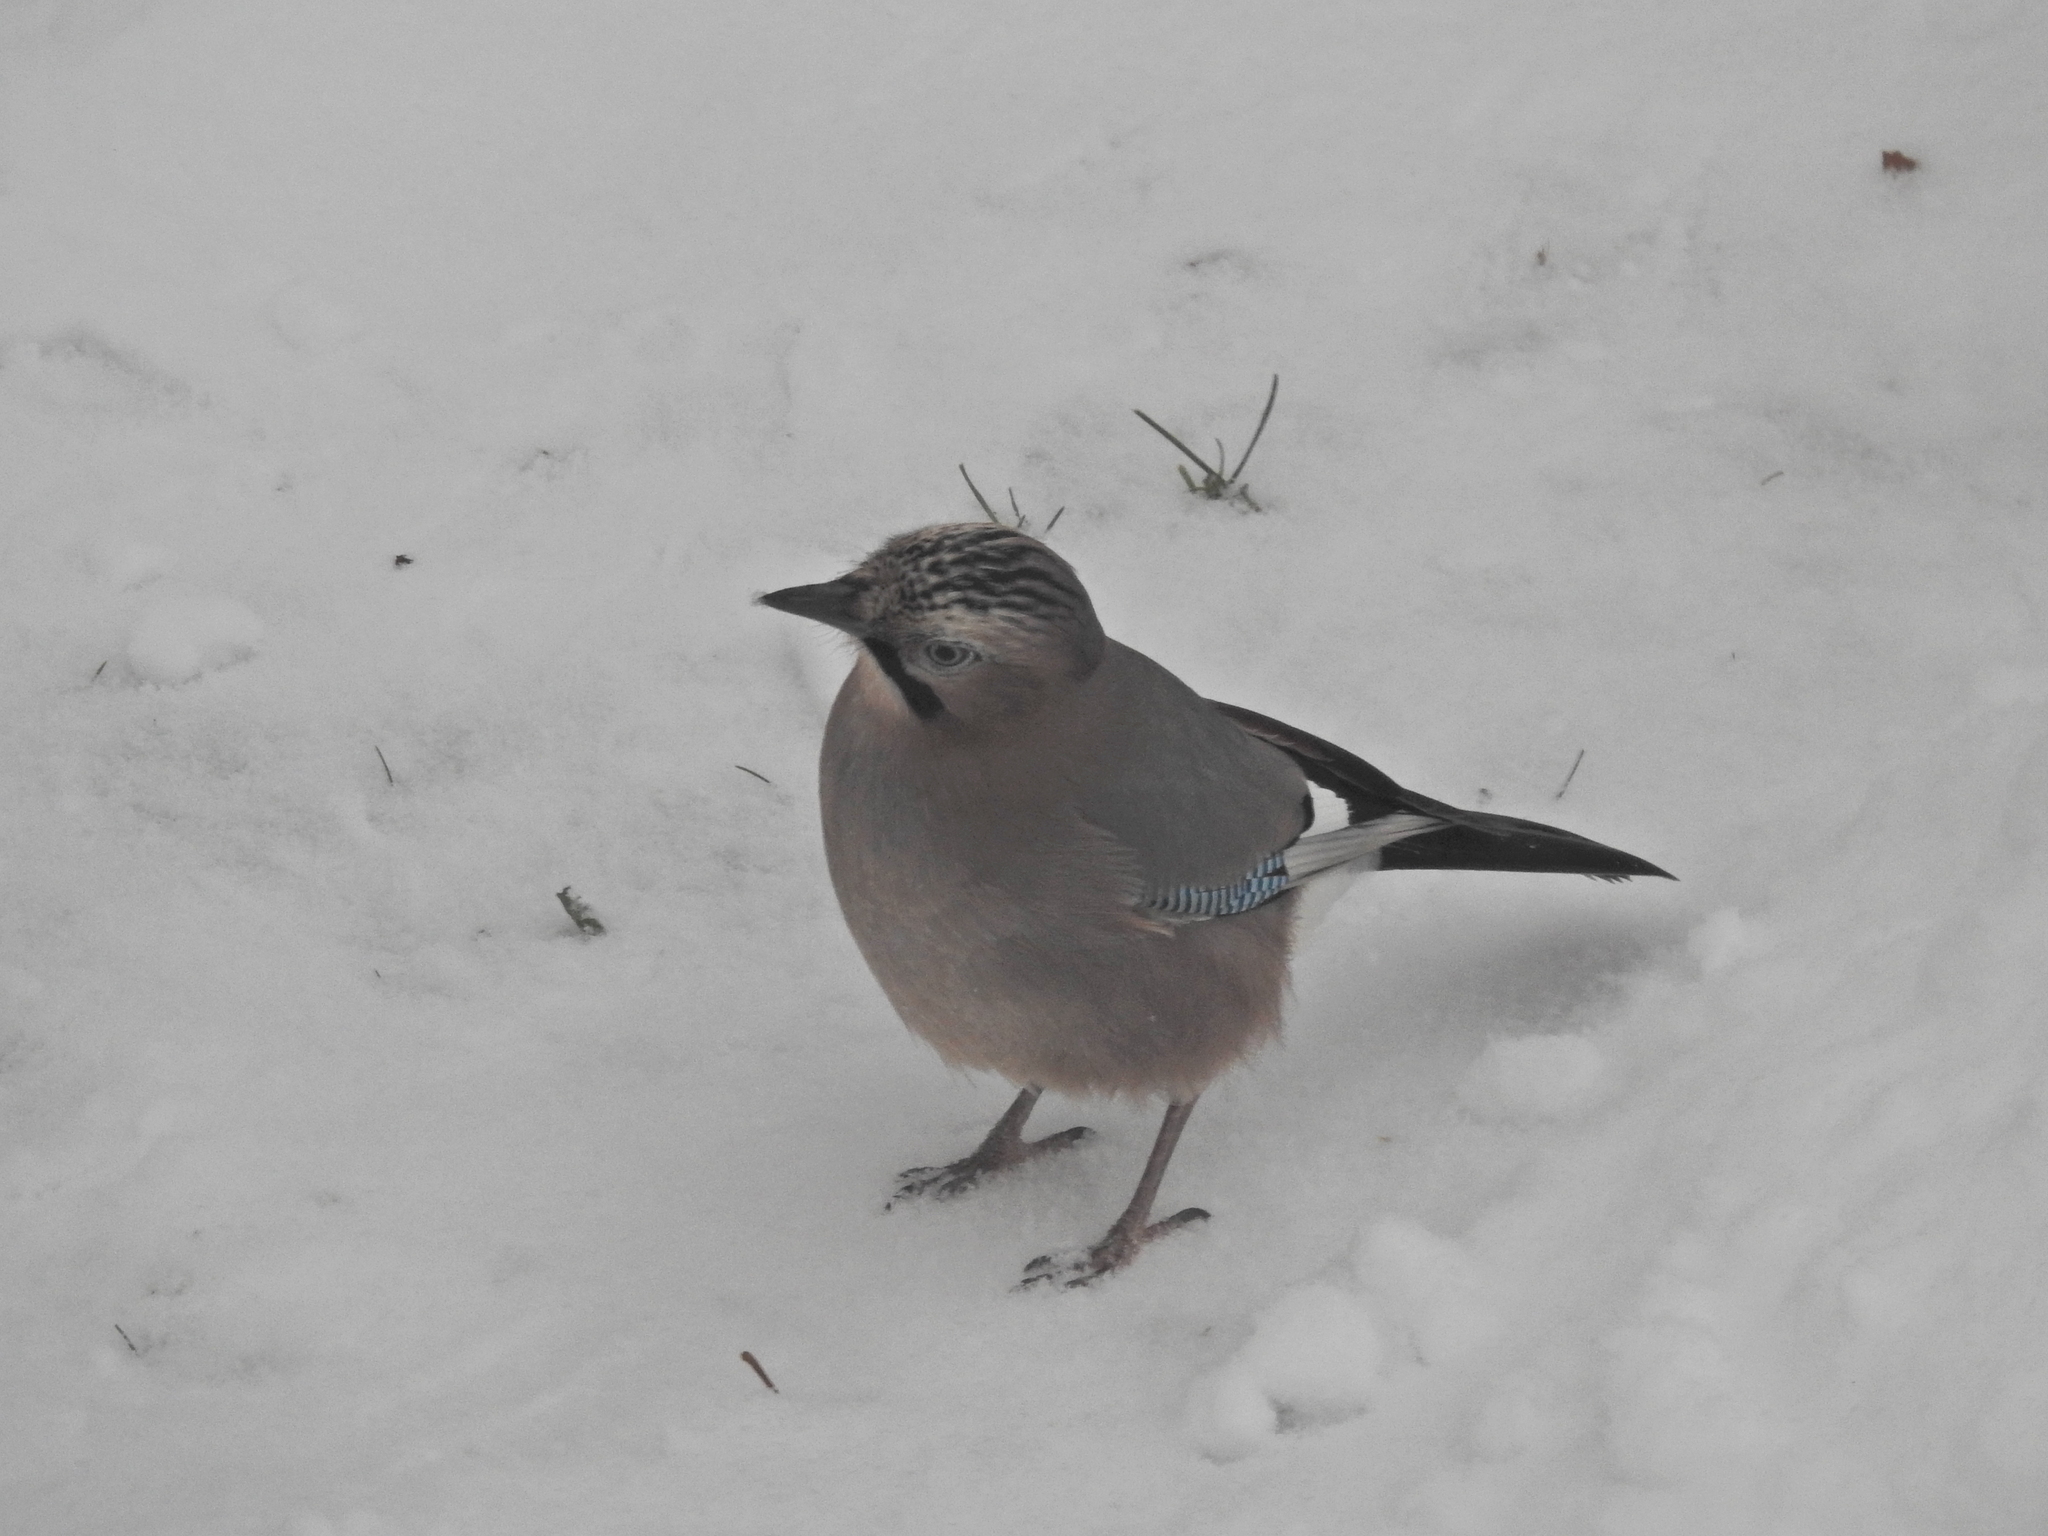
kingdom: Animalia
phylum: Chordata
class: Aves
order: Passeriformes
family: Corvidae
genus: Garrulus
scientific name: Garrulus glandarius
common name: Eurasian jay
